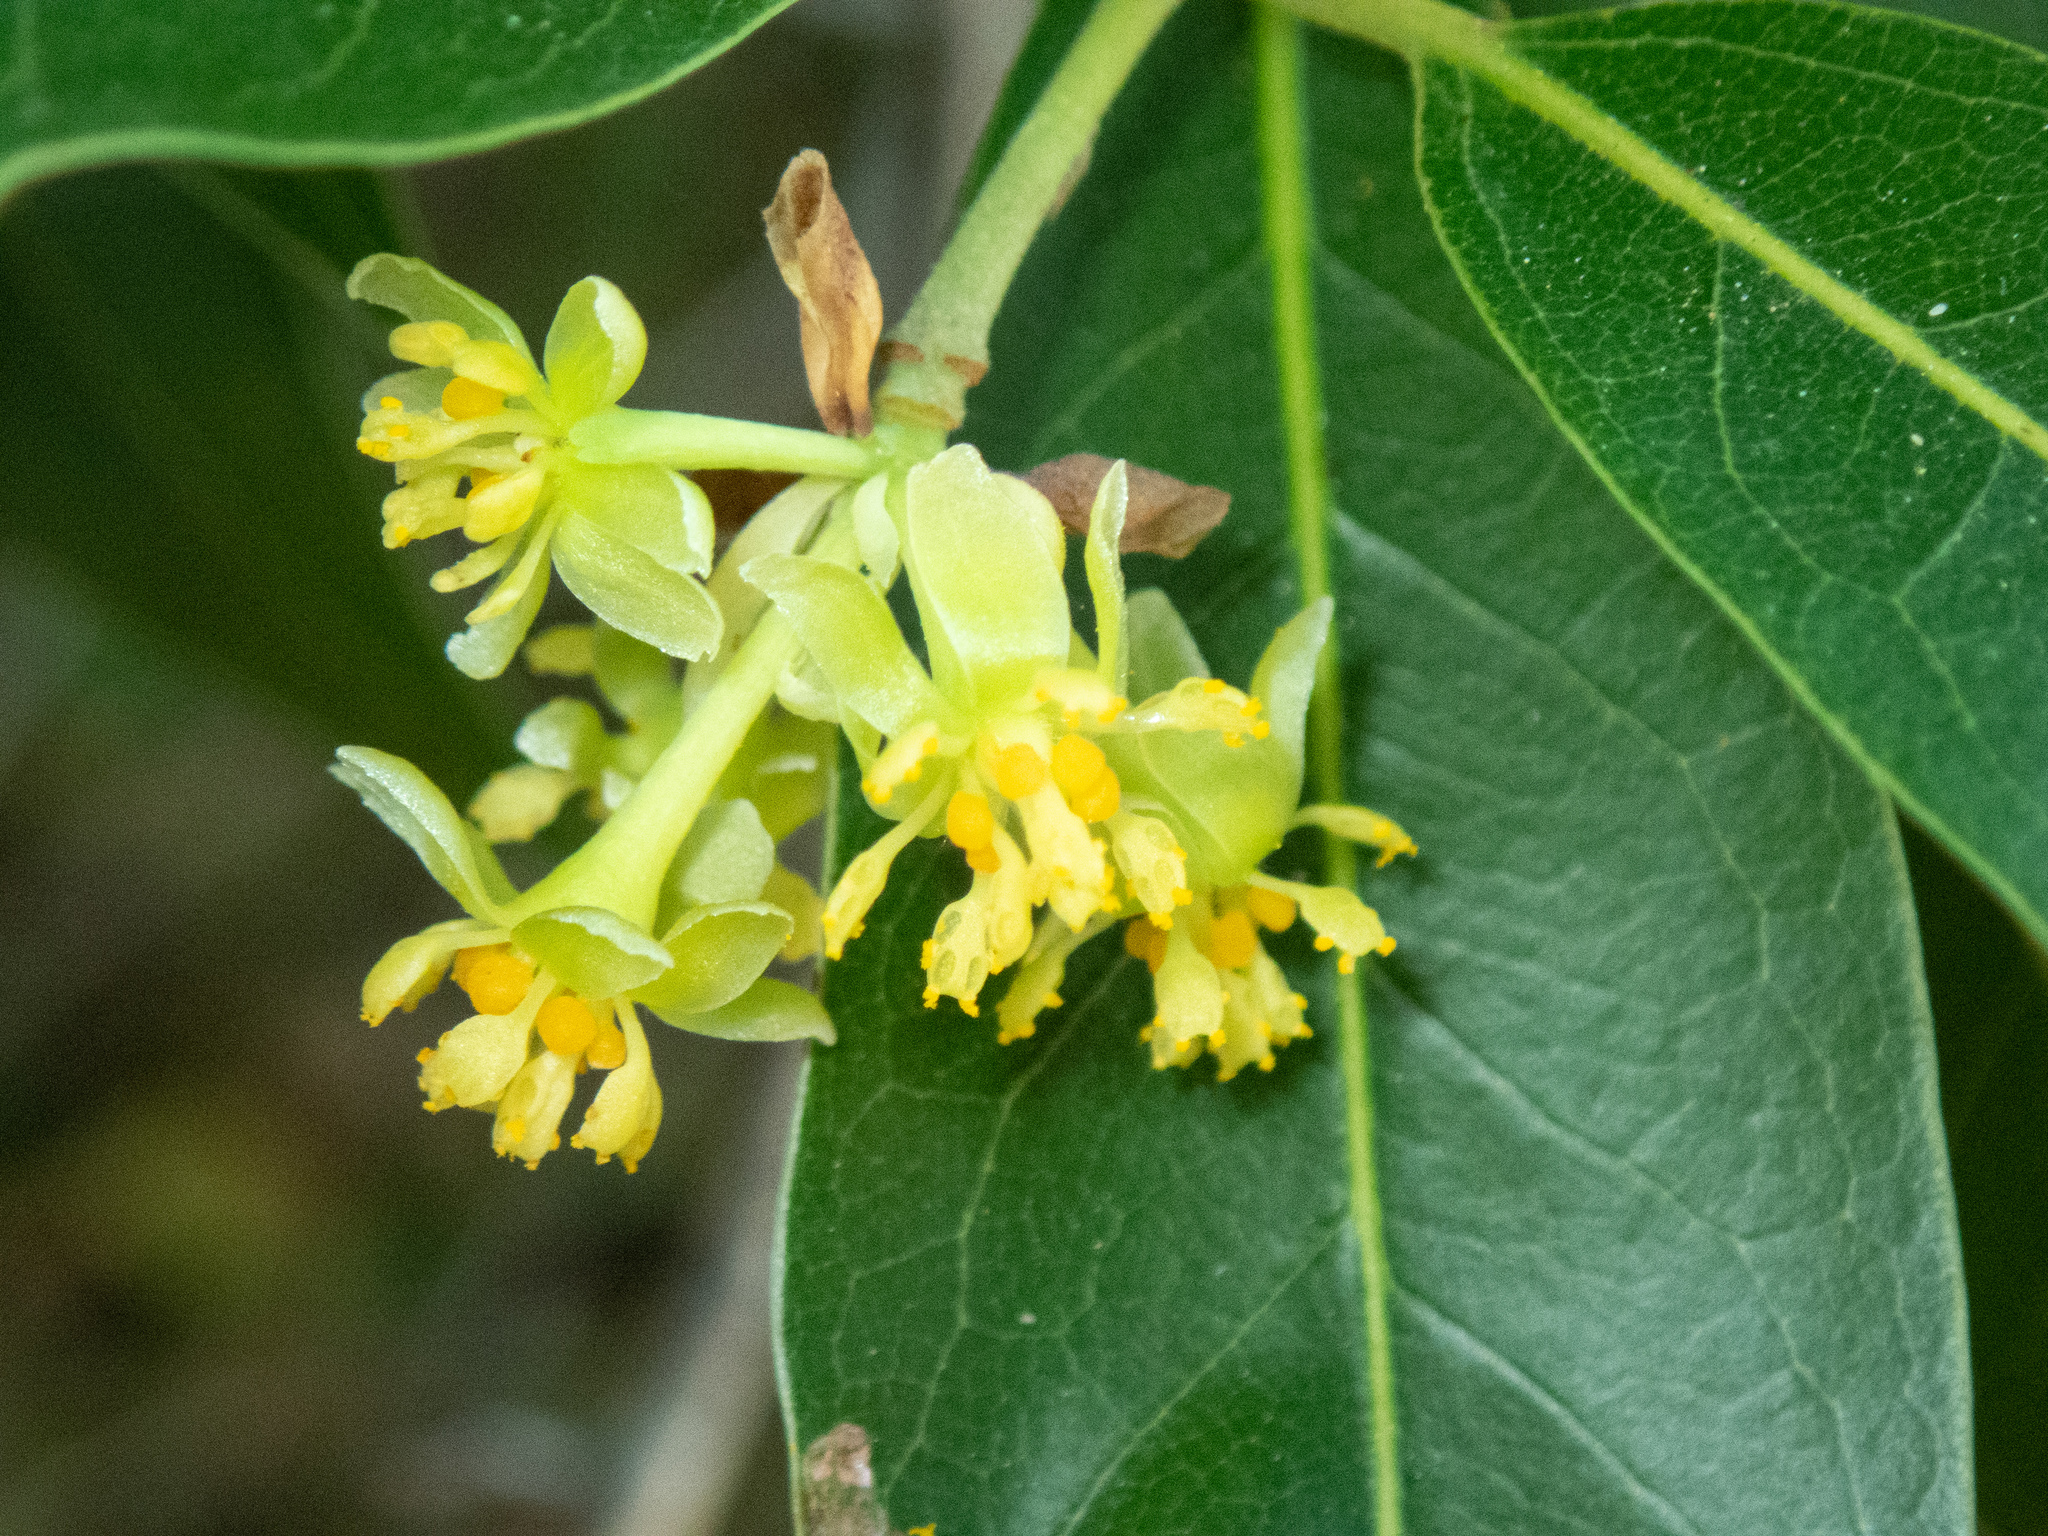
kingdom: Plantae
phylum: Tracheophyta
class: Magnoliopsida
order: Laurales
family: Lauraceae
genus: Umbellularia
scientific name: Umbellularia californica
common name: California bay
